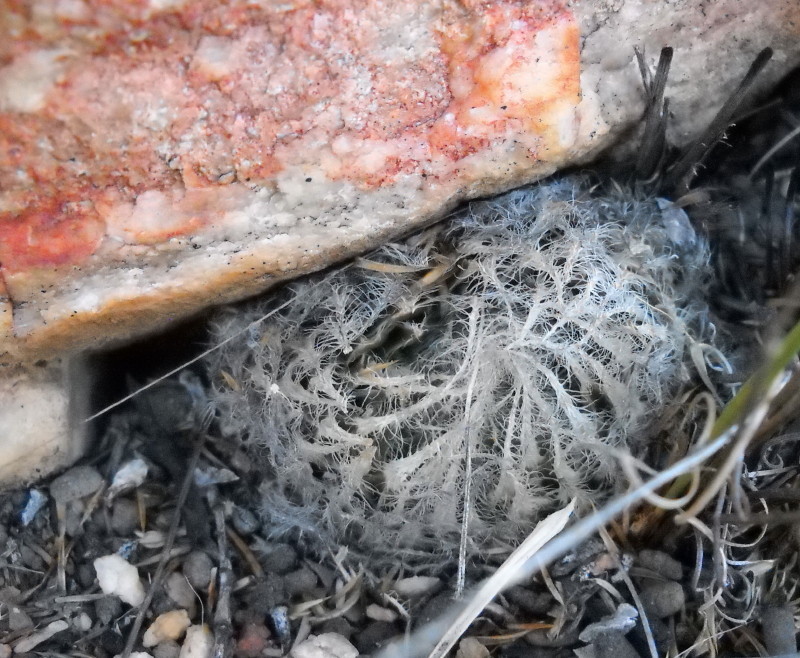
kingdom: Plantae
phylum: Tracheophyta
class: Liliopsida
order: Asparagales
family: Asphodelaceae
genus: Haworthia
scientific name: Haworthia arachnoidea
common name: Cobweb-aloe
